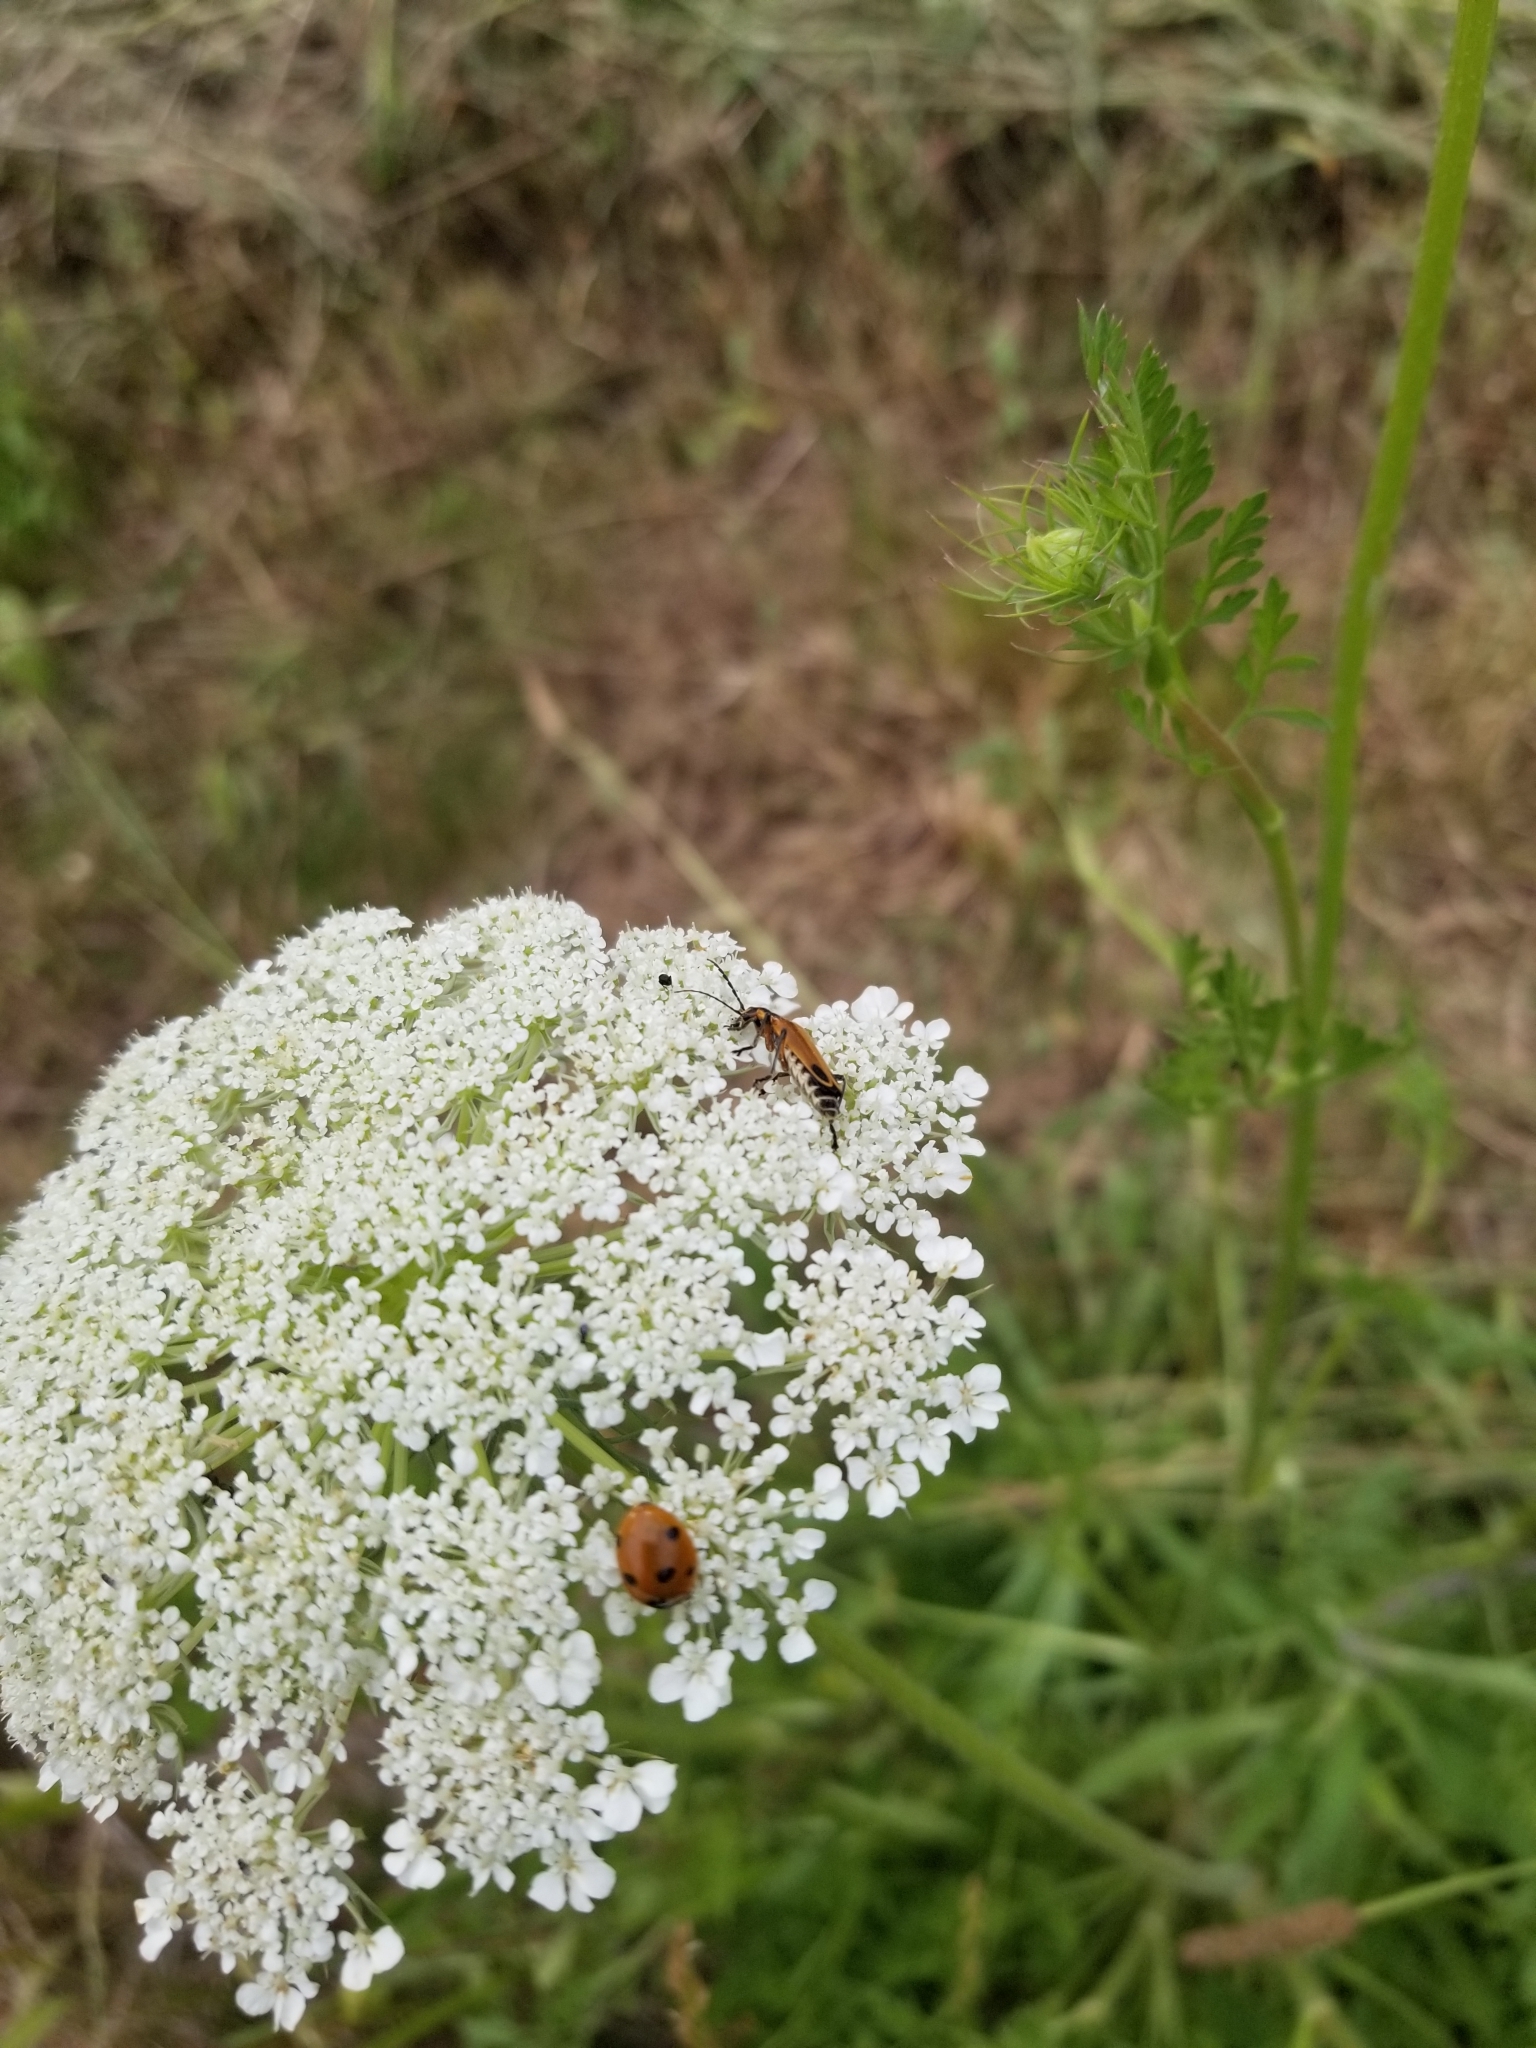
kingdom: Plantae
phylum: Tracheophyta
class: Magnoliopsida
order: Apiales
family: Apiaceae
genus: Daucus
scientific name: Daucus carota
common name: Wild carrot
